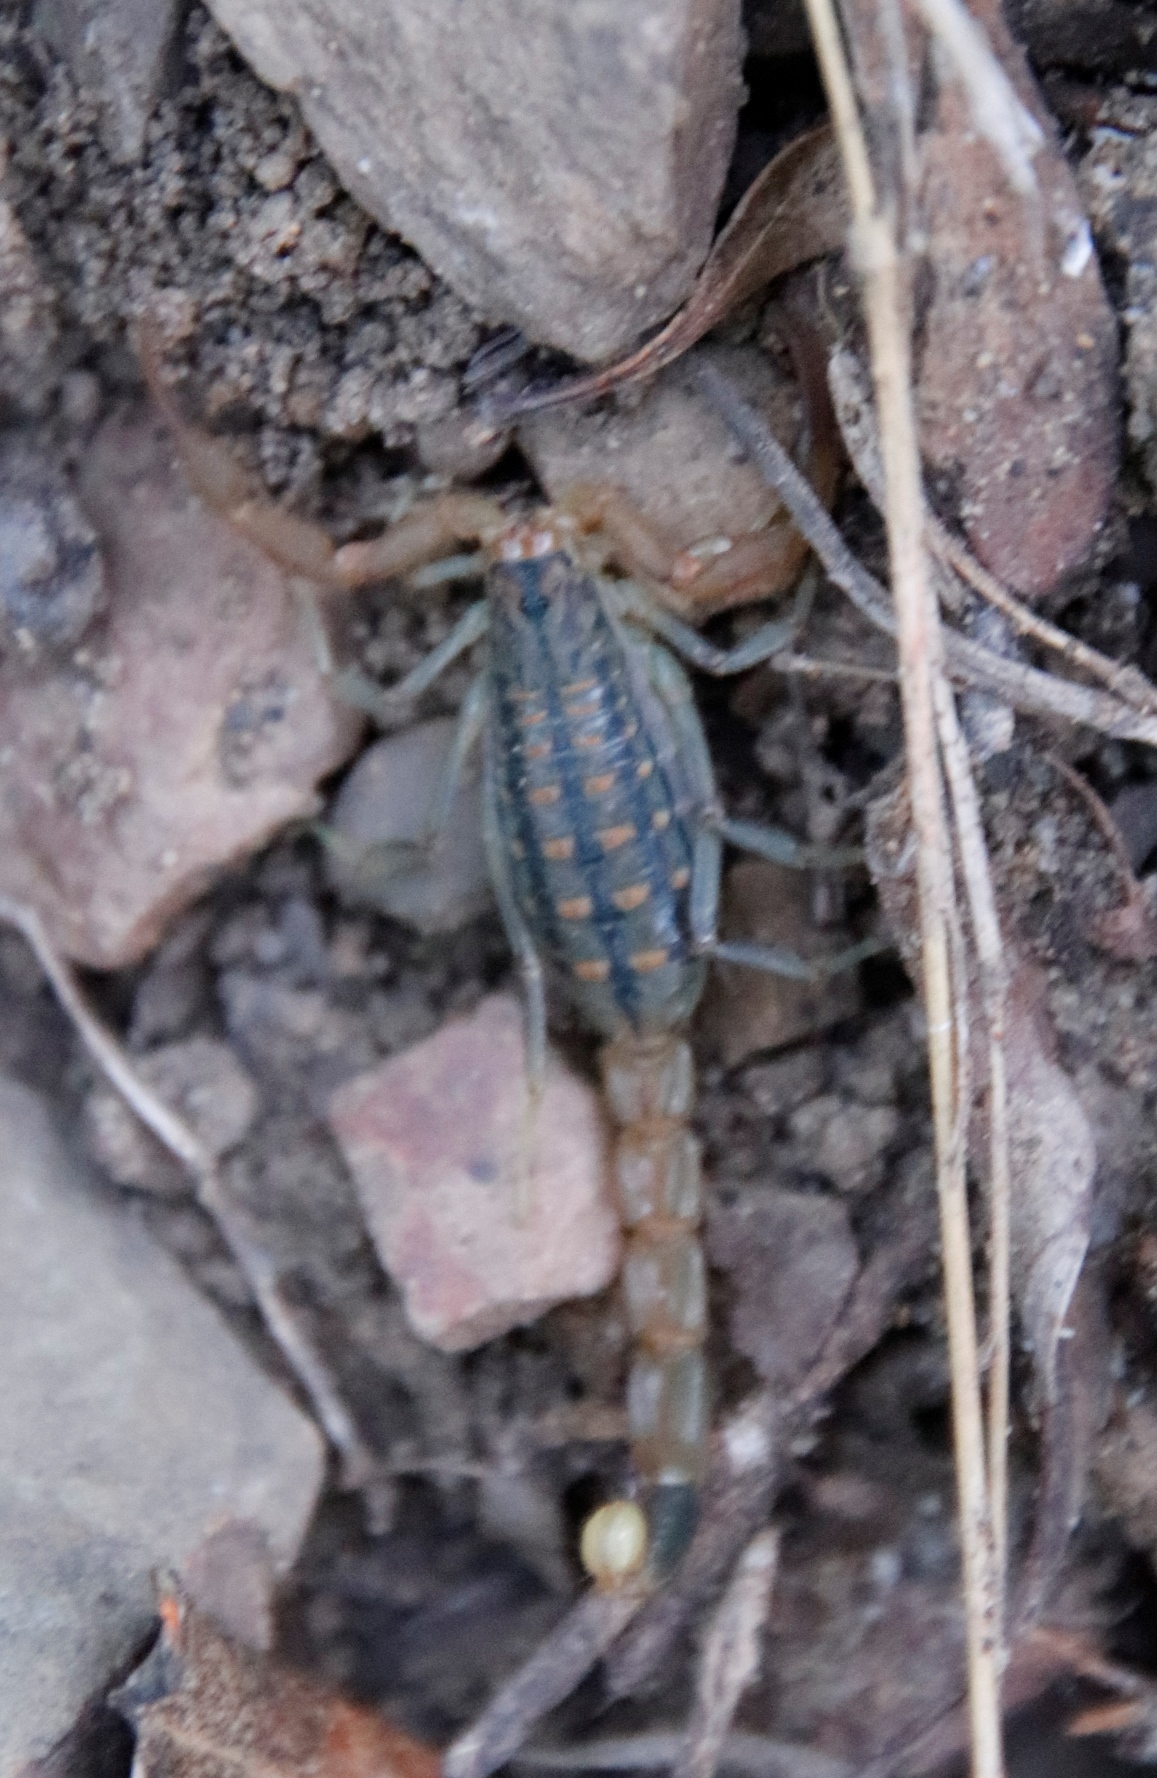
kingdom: Animalia
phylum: Arthropoda
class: Arachnida
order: Scorpiones
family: Buthidae
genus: Uroplectes
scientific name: Uroplectes carinatus
